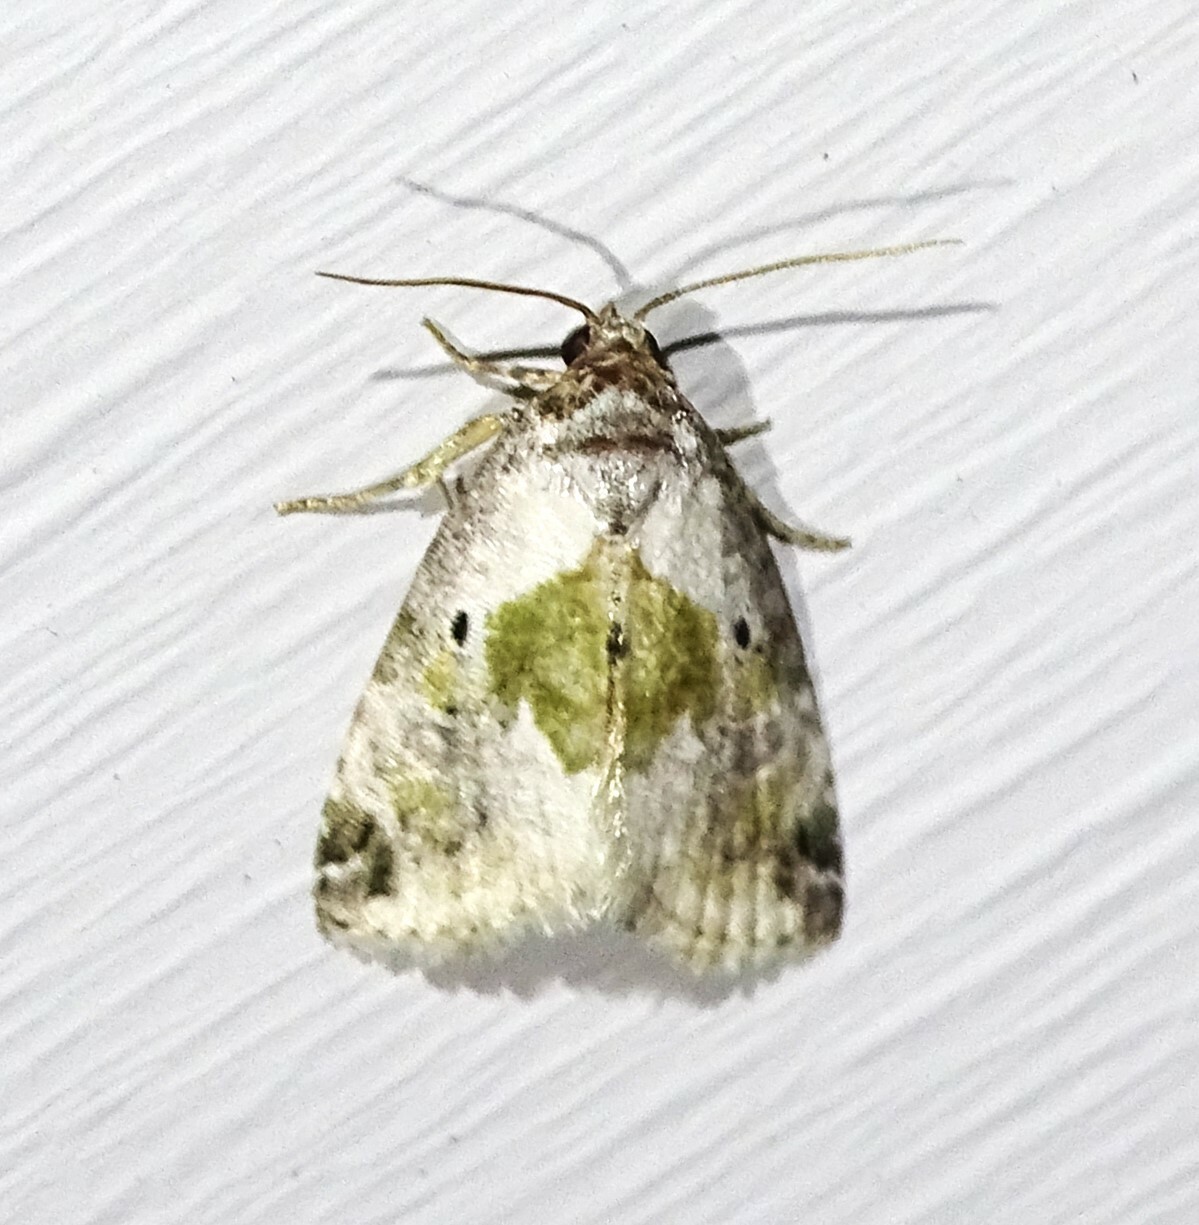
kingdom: Animalia
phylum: Arthropoda
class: Insecta
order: Lepidoptera
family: Noctuidae
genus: Maliattha
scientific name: Maliattha synochitis
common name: Black-dotted glyph
